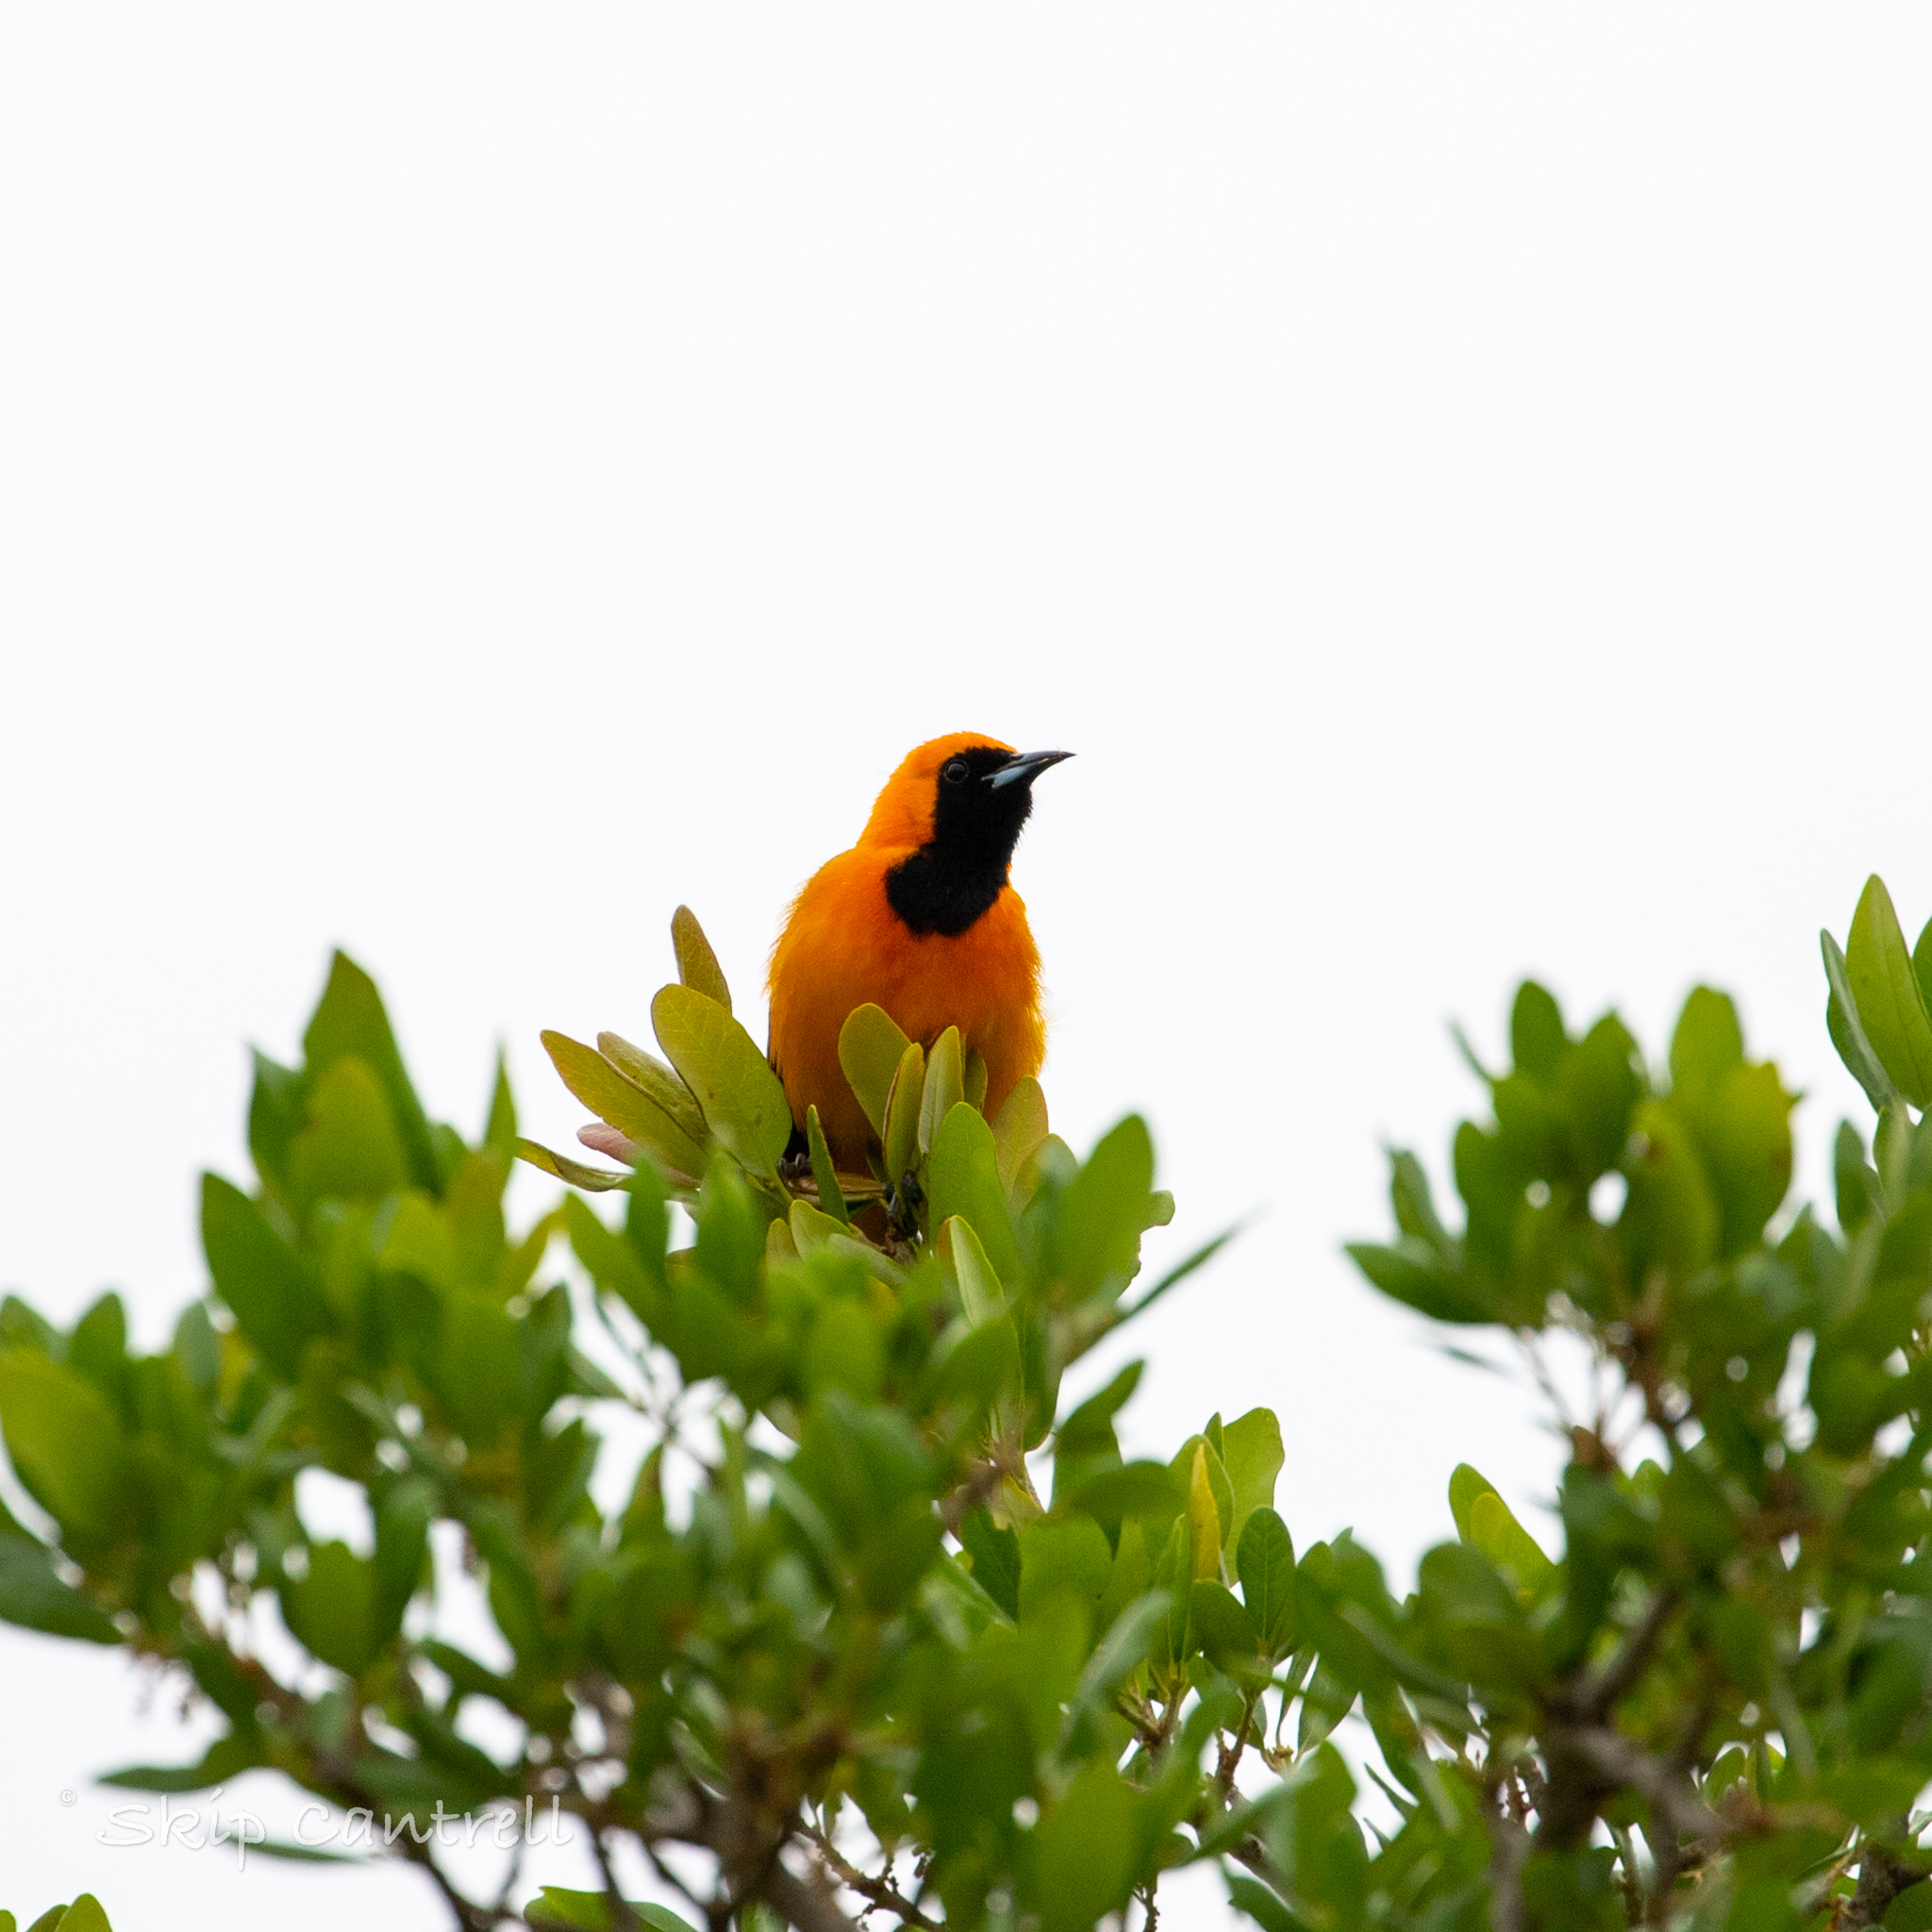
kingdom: Animalia
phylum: Chordata
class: Aves
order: Passeriformes
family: Icteridae
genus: Icterus
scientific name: Icterus cucullatus
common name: Hooded oriole
